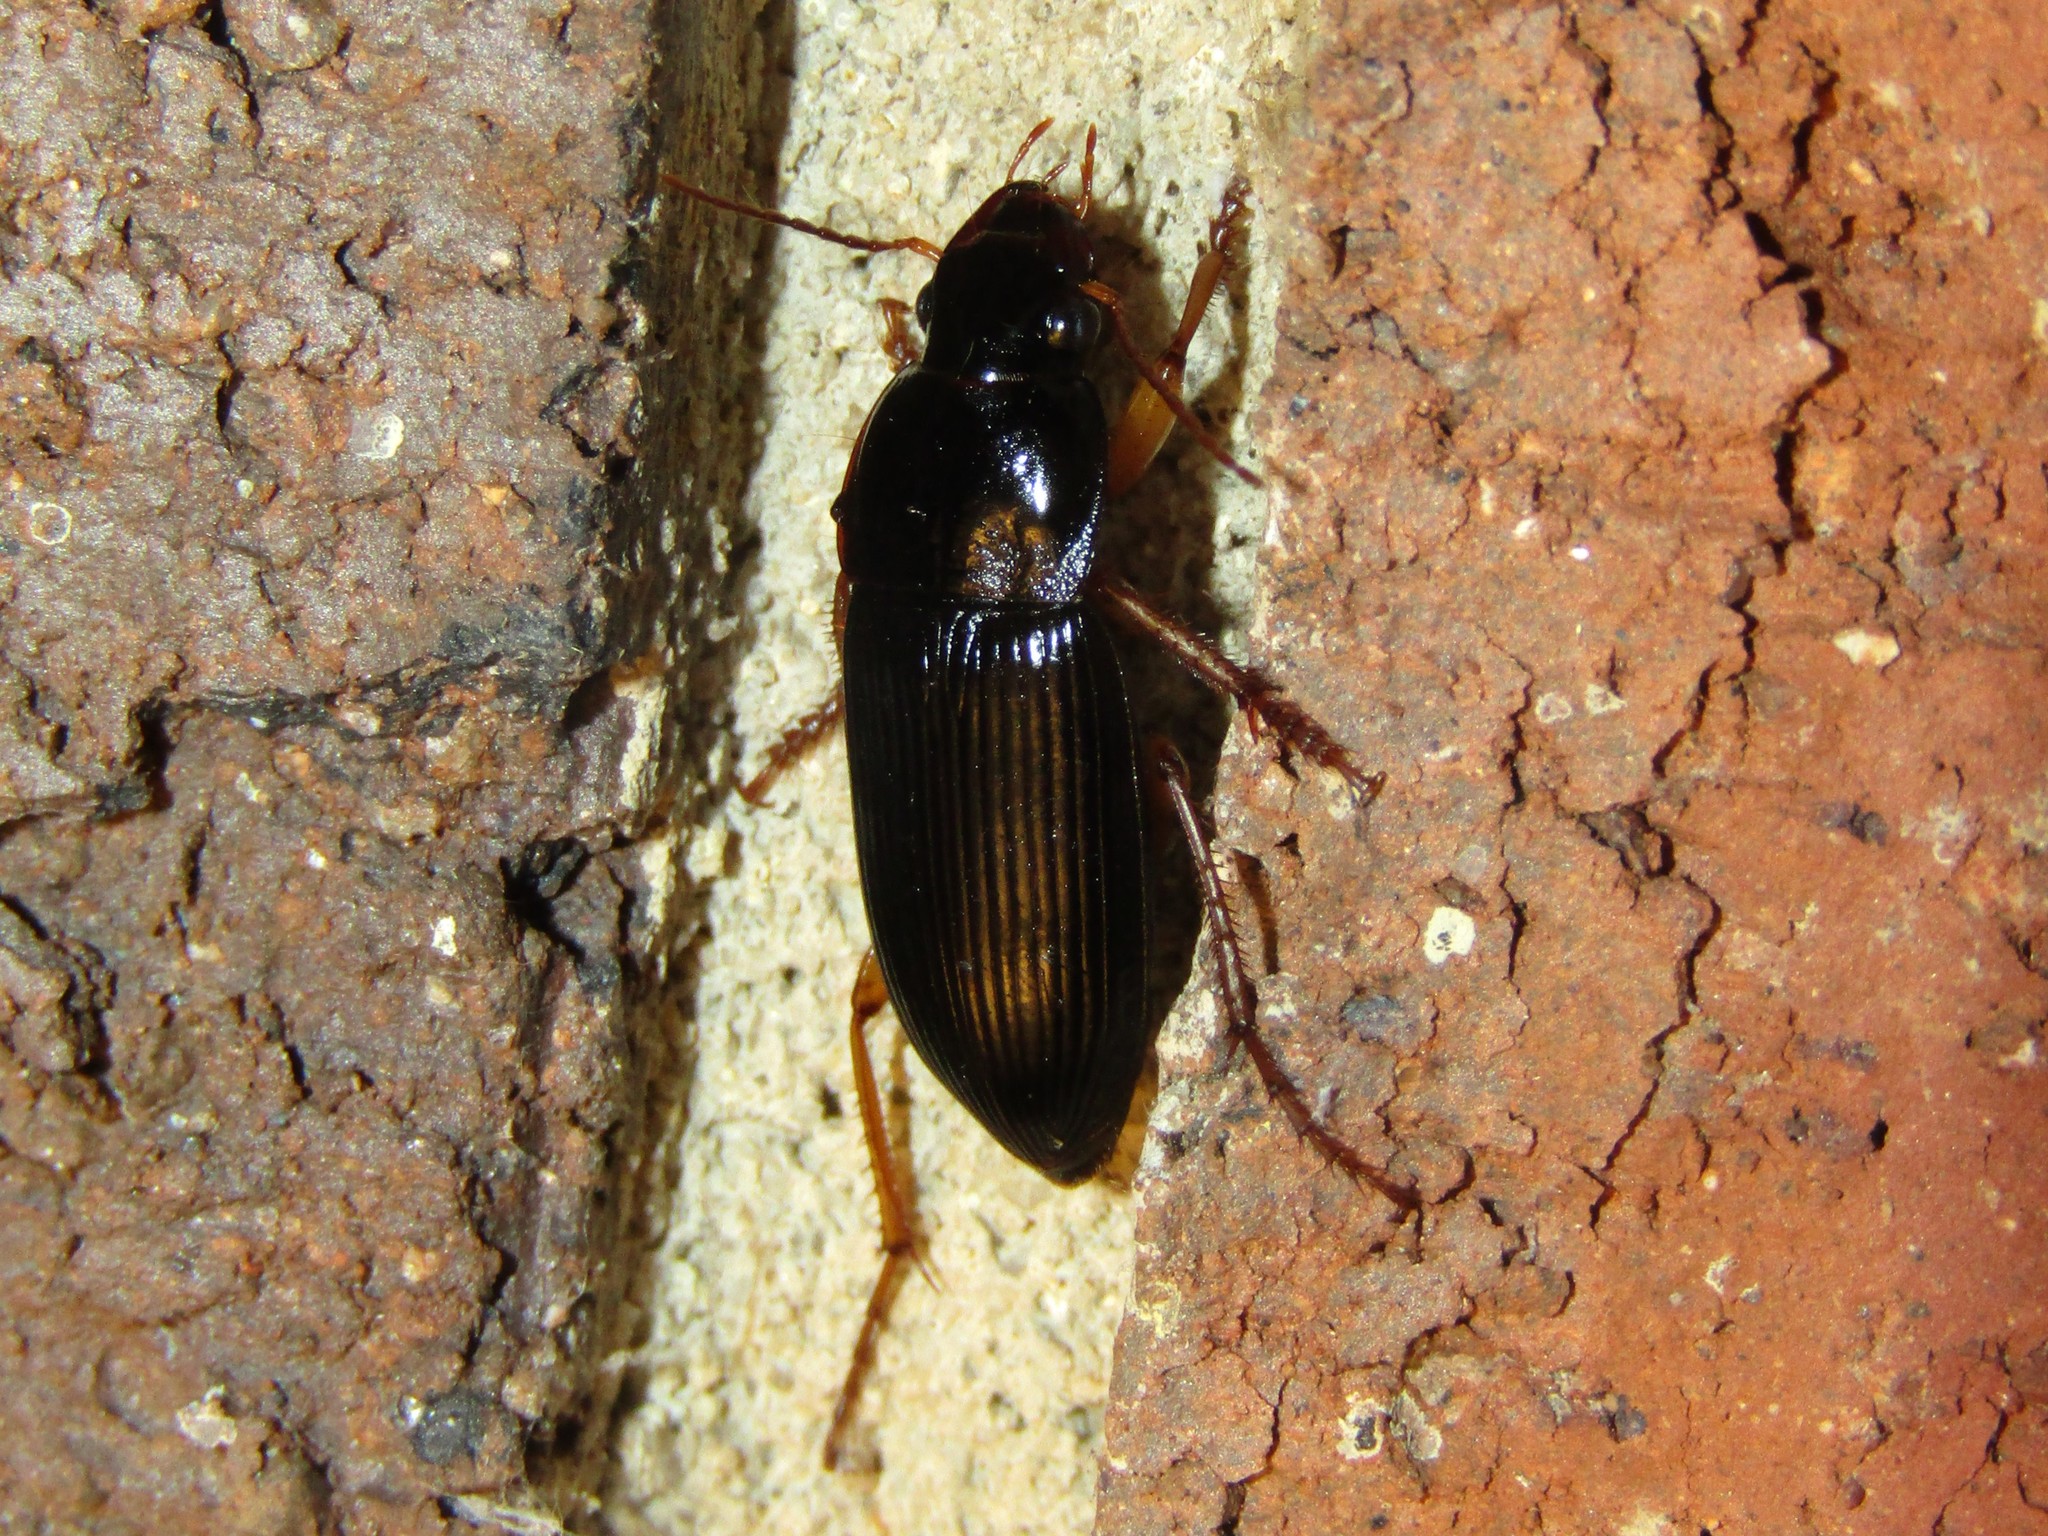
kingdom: Animalia
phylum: Arthropoda
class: Insecta
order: Coleoptera
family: Carabidae
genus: Harpalus
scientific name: Harpalus pensylvanicus
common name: Pennsylvania dingy ground beetle
